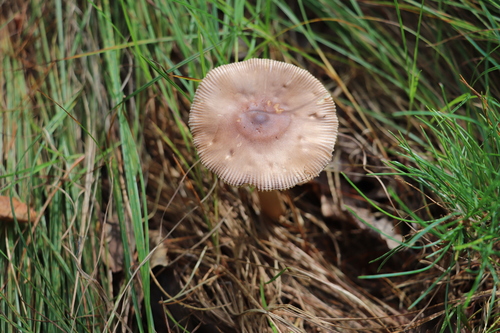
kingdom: Fungi
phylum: Basidiomycota
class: Agaricomycetes
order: Agaricales
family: Amanitaceae
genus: Amanita
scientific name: Amanita fulva
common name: Tawny grisette
